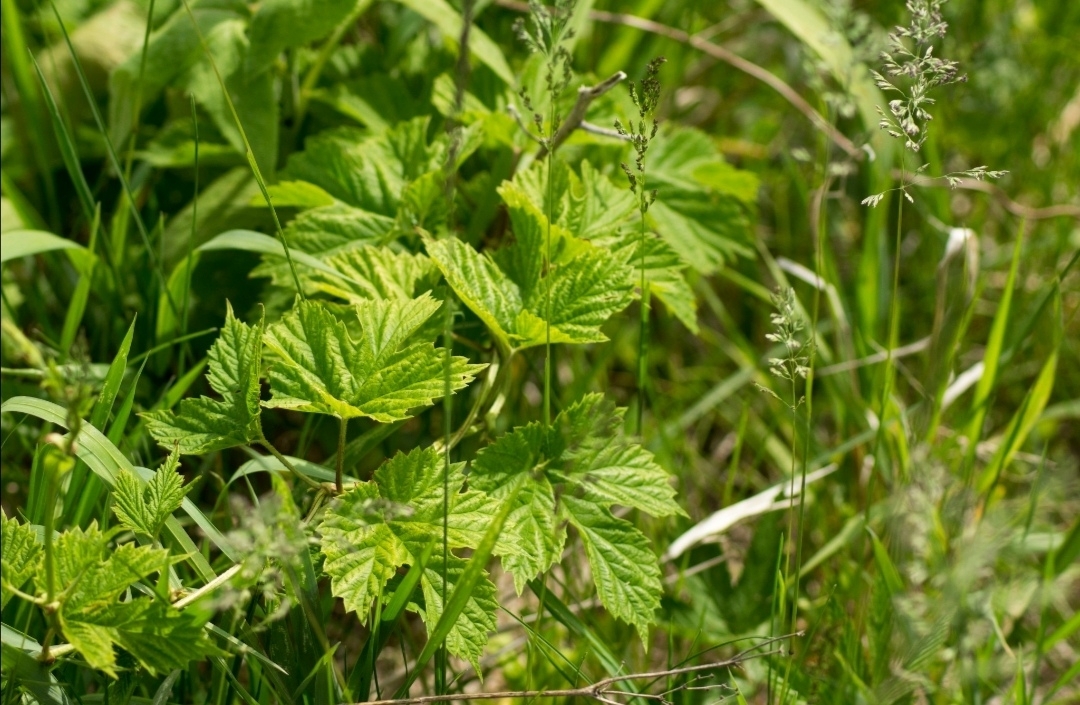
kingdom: Plantae
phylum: Tracheophyta
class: Magnoliopsida
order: Rosales
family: Cannabaceae
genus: Humulus
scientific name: Humulus lupulus
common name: Hop
